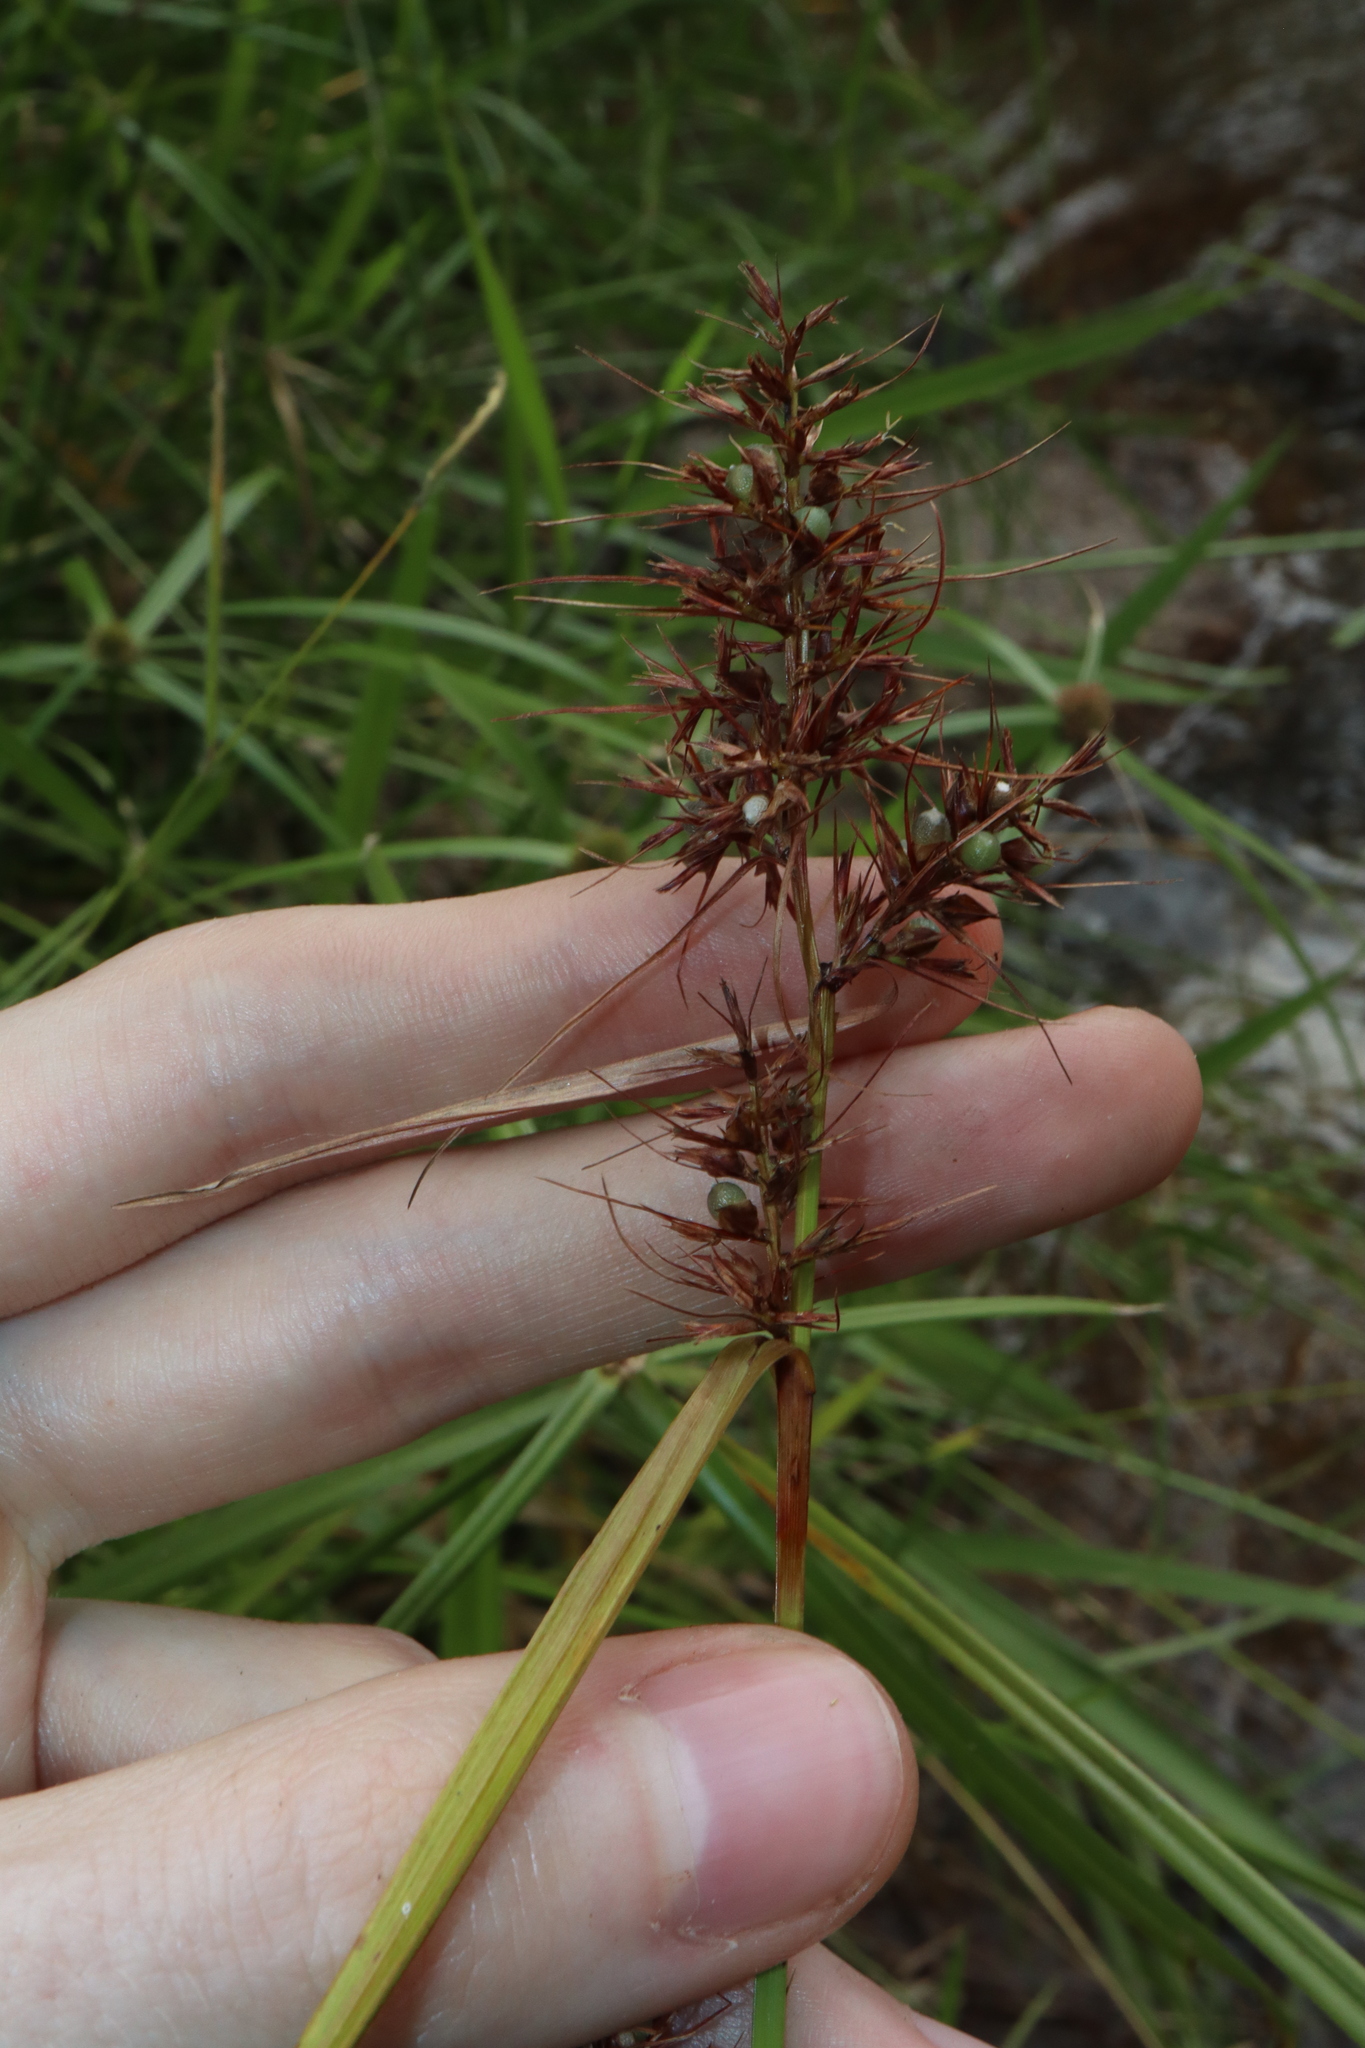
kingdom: Plantae
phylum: Tracheophyta
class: Liliopsida
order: Poales
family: Cyperaceae
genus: Scleria
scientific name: Scleria ciliaris
